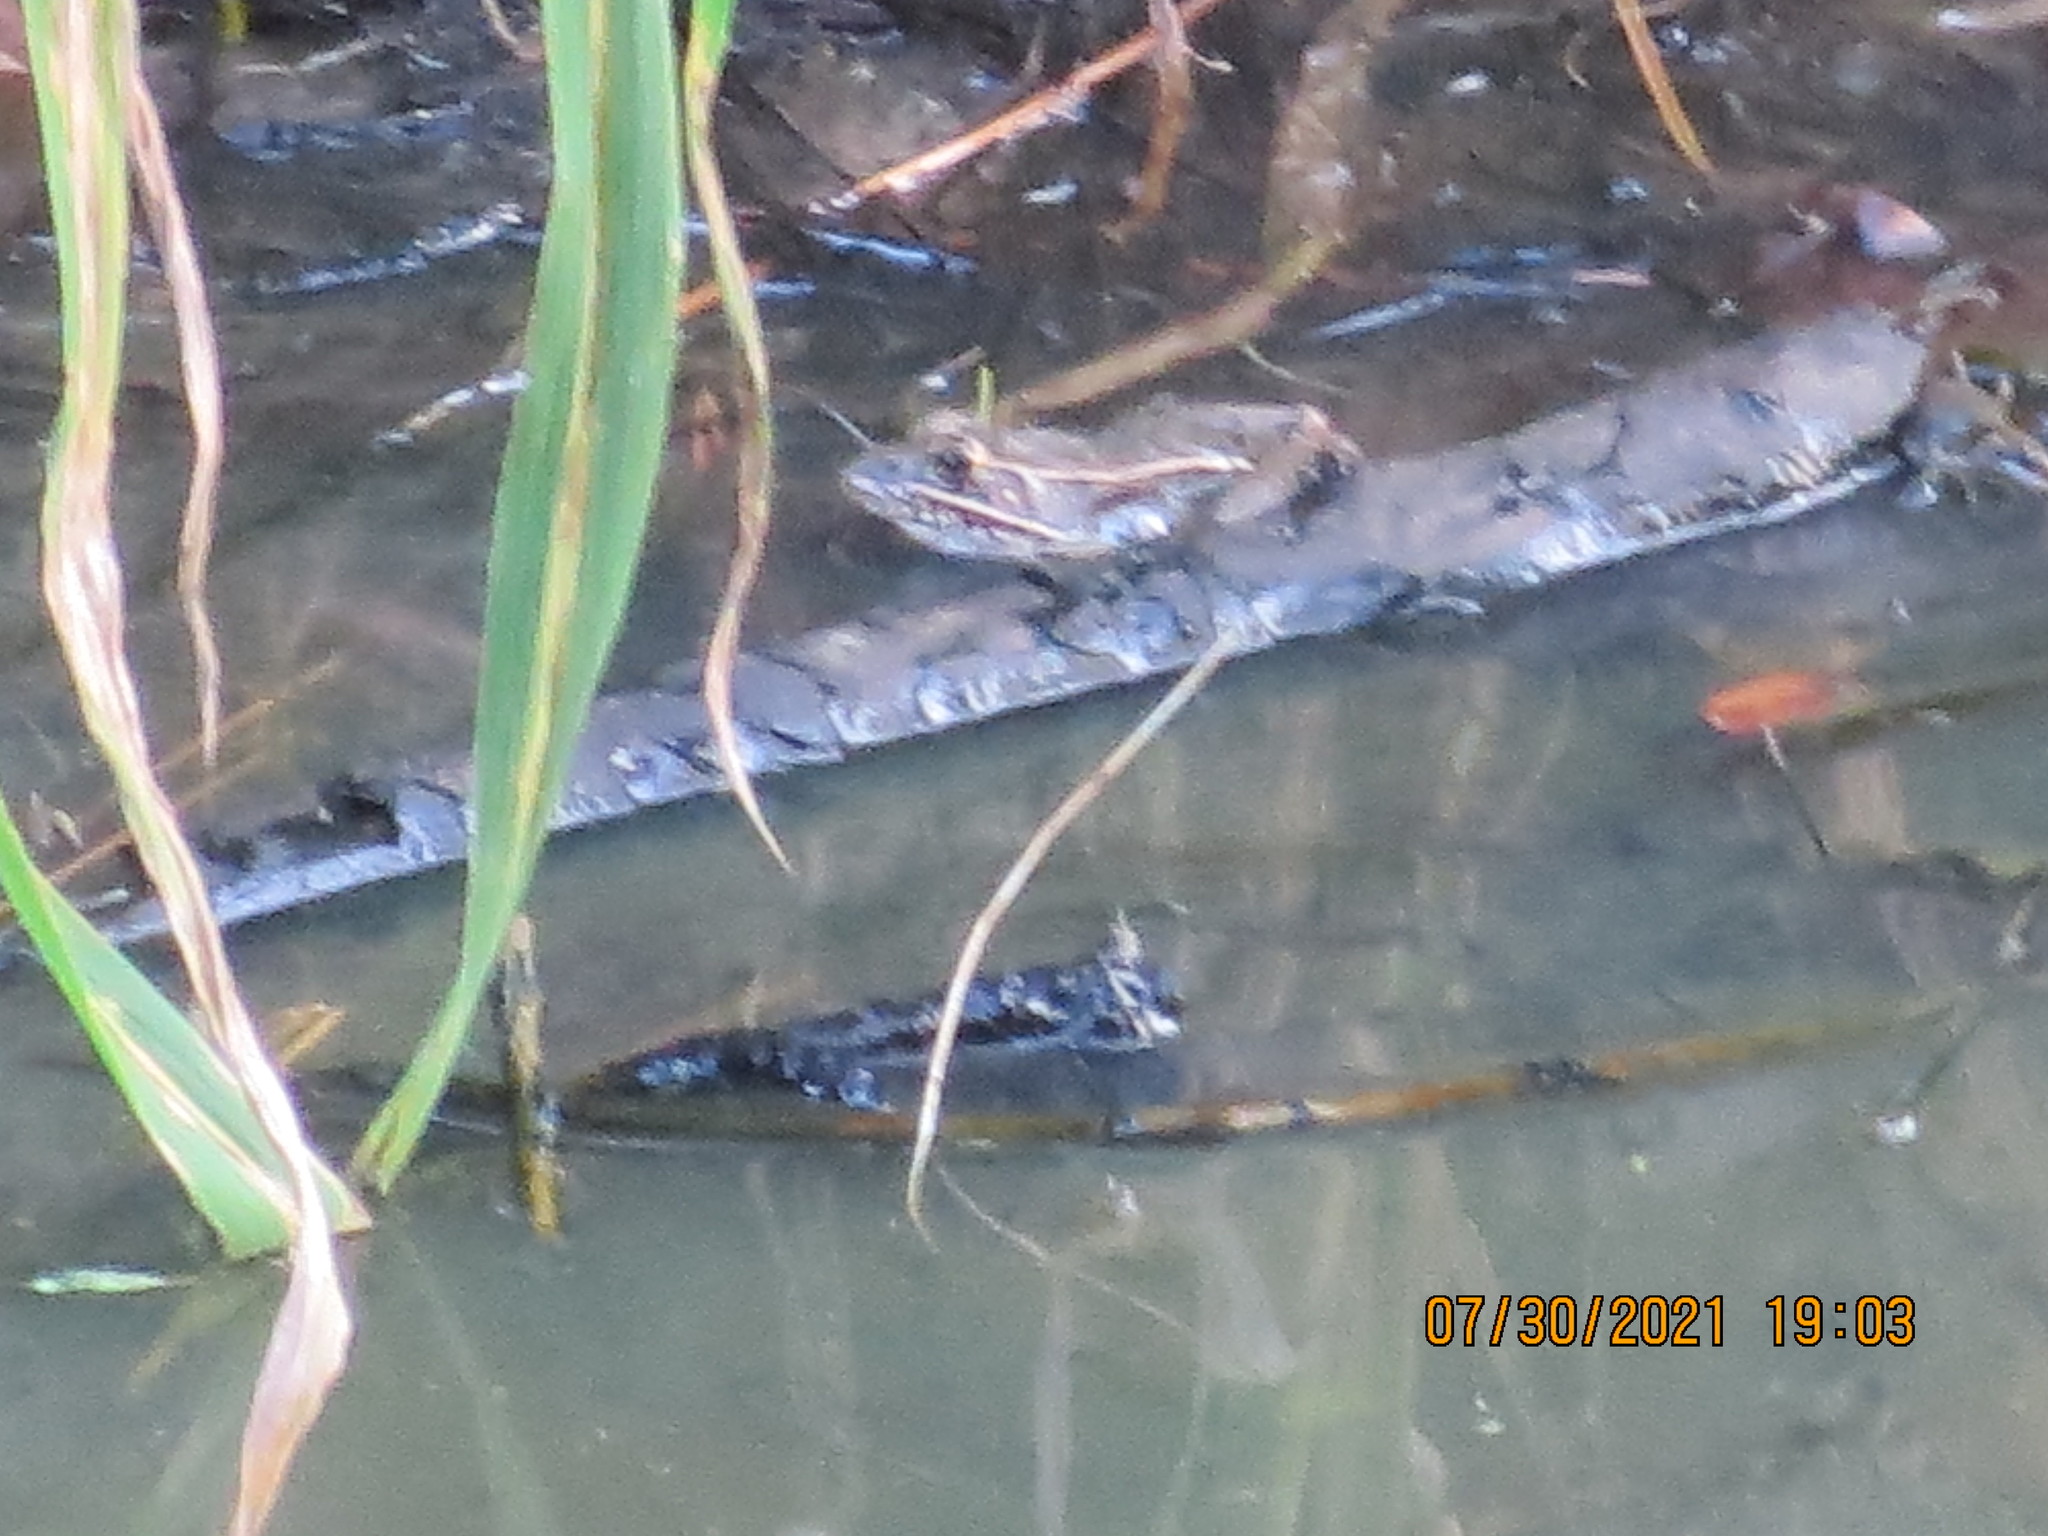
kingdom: Animalia
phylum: Chordata
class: Amphibia
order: Anura
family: Ranidae
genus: Lithobates
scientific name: Lithobates sphenocephalus
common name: Southern leopard frog
